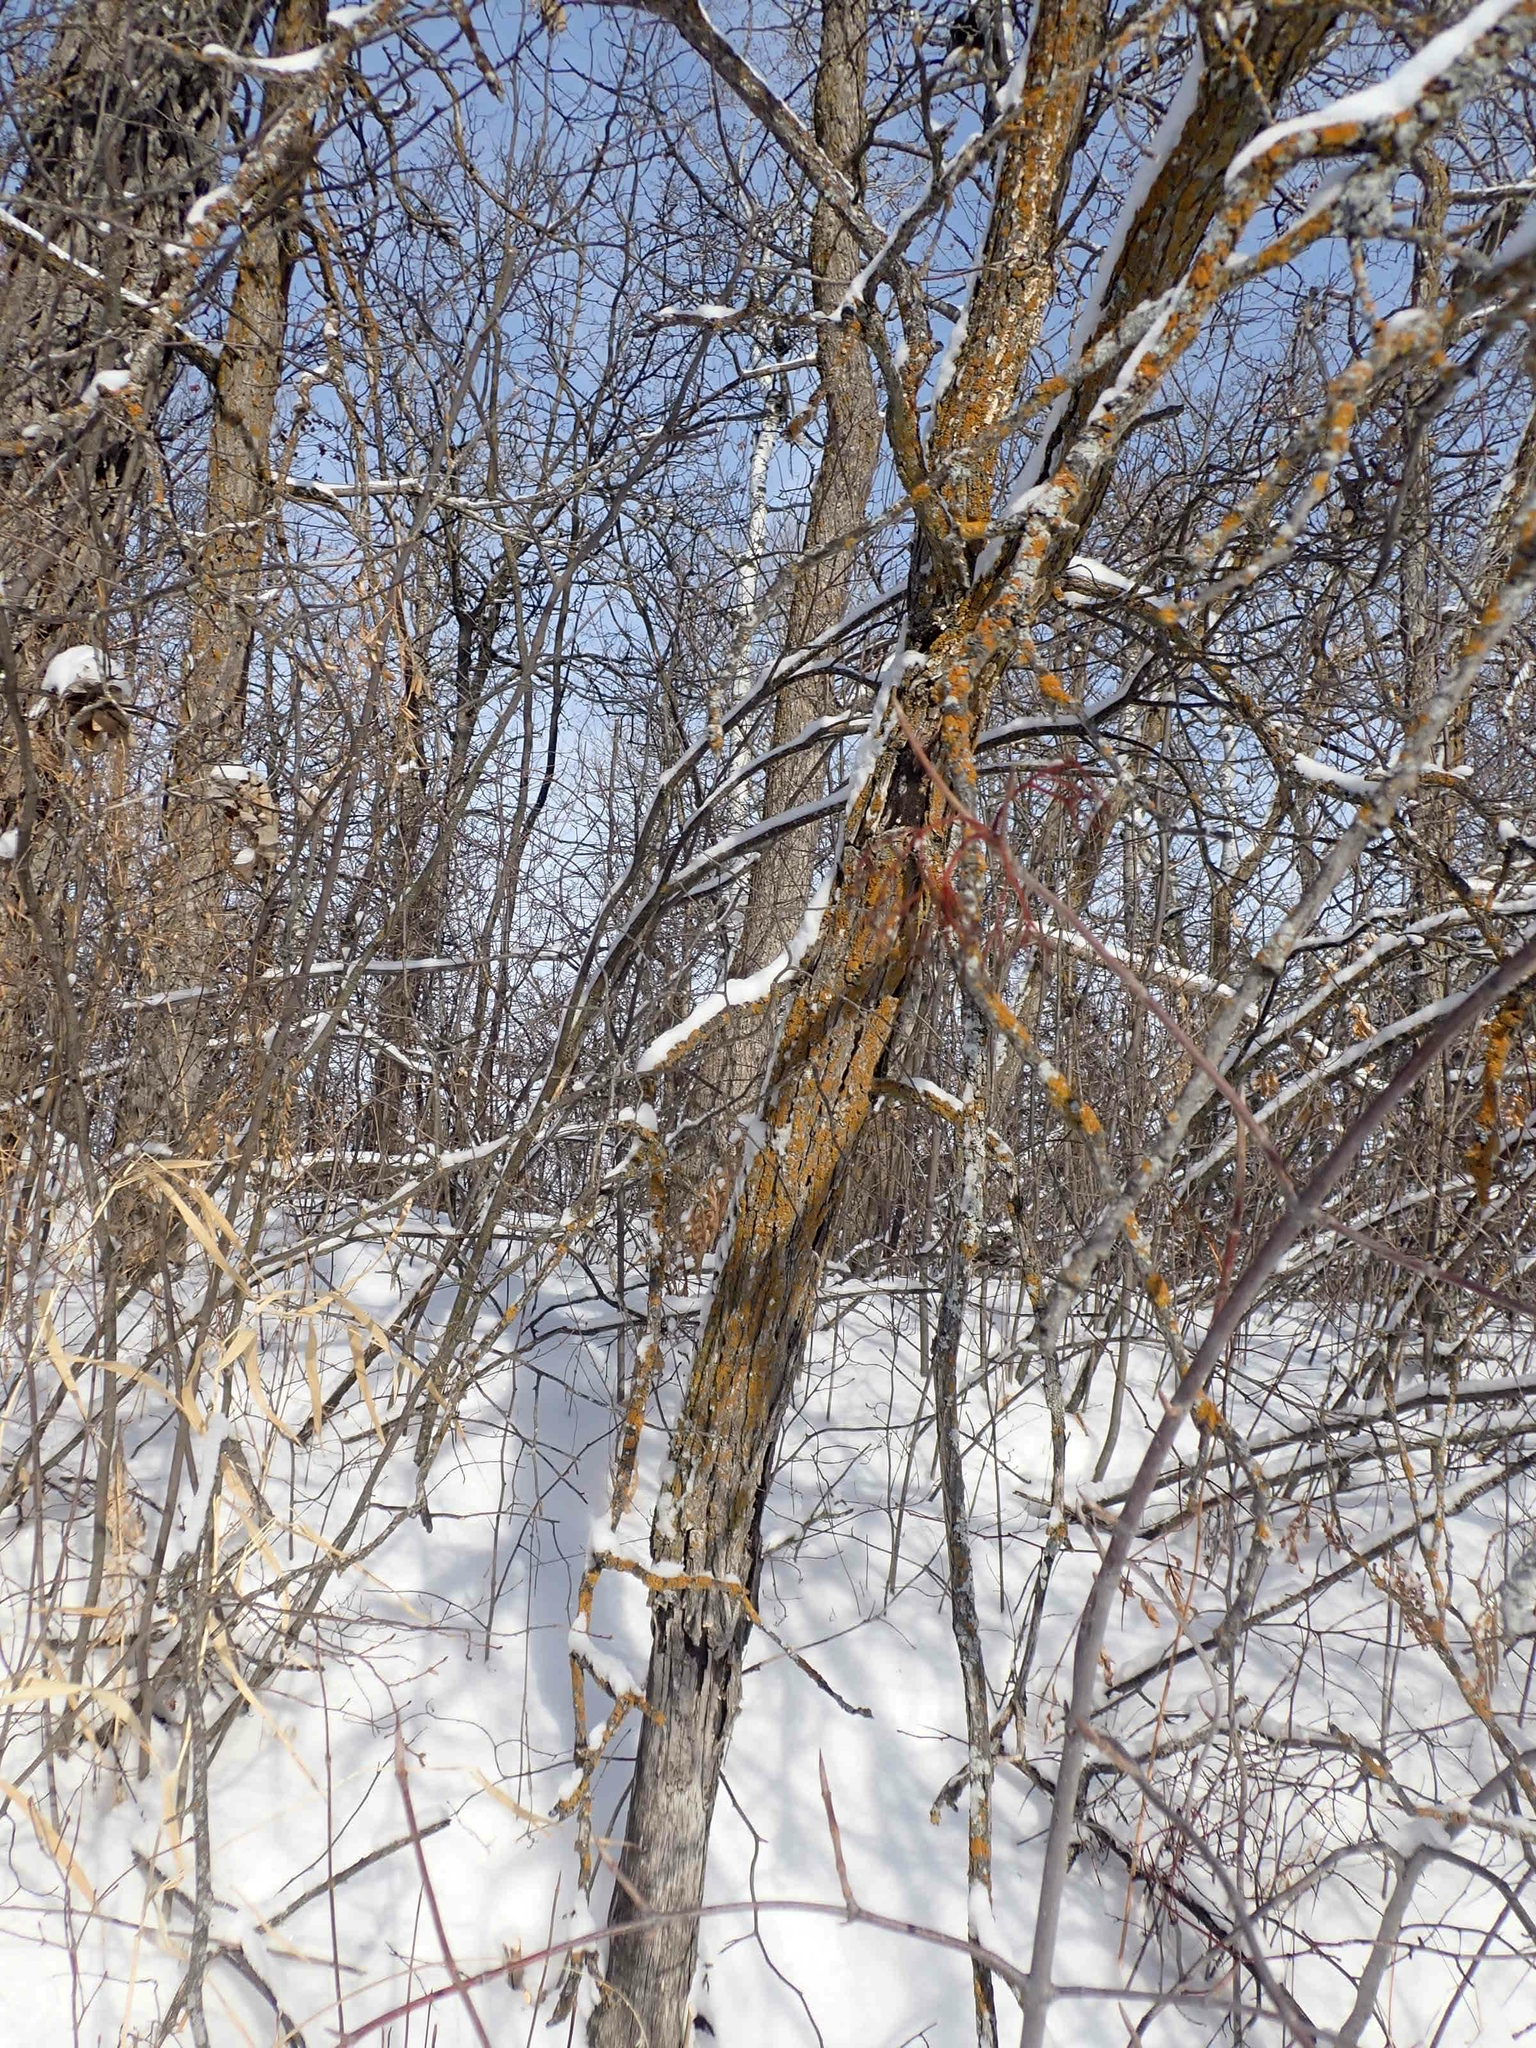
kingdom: Plantae
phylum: Tracheophyta
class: Magnoliopsida
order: Fagales
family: Fagaceae
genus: Quercus
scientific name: Quercus macrocarpa
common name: Bur oak
